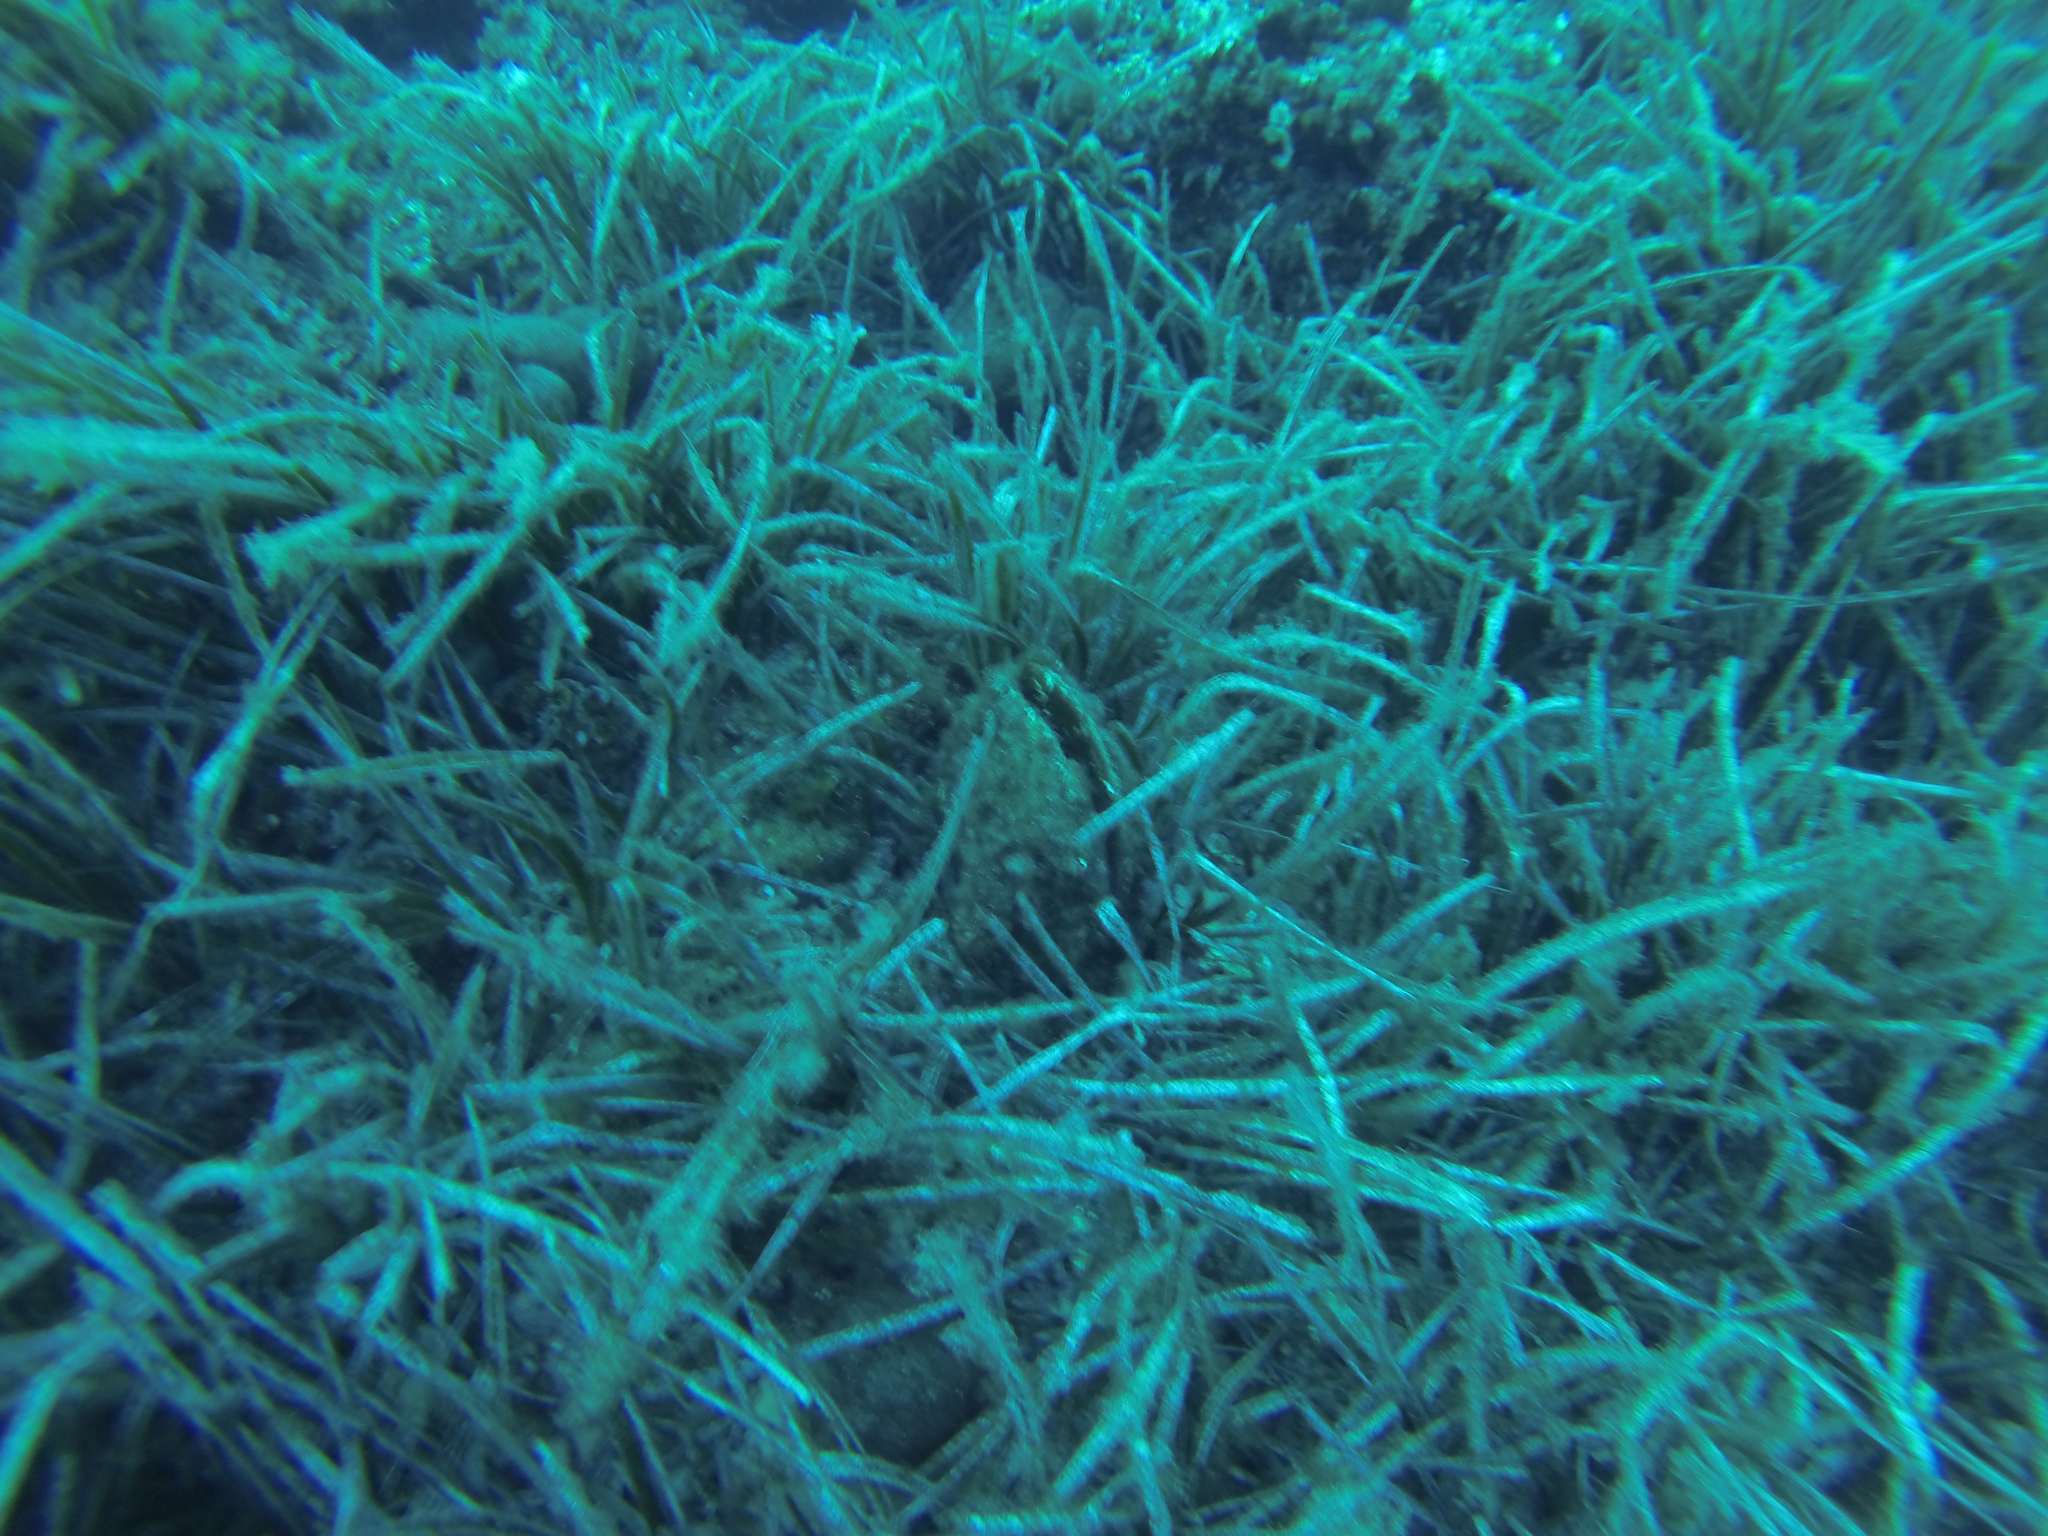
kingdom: Animalia
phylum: Mollusca
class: Bivalvia
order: Ostreida
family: Pinnidae
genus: Pinna
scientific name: Pinna nobilis
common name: Fan mussel
